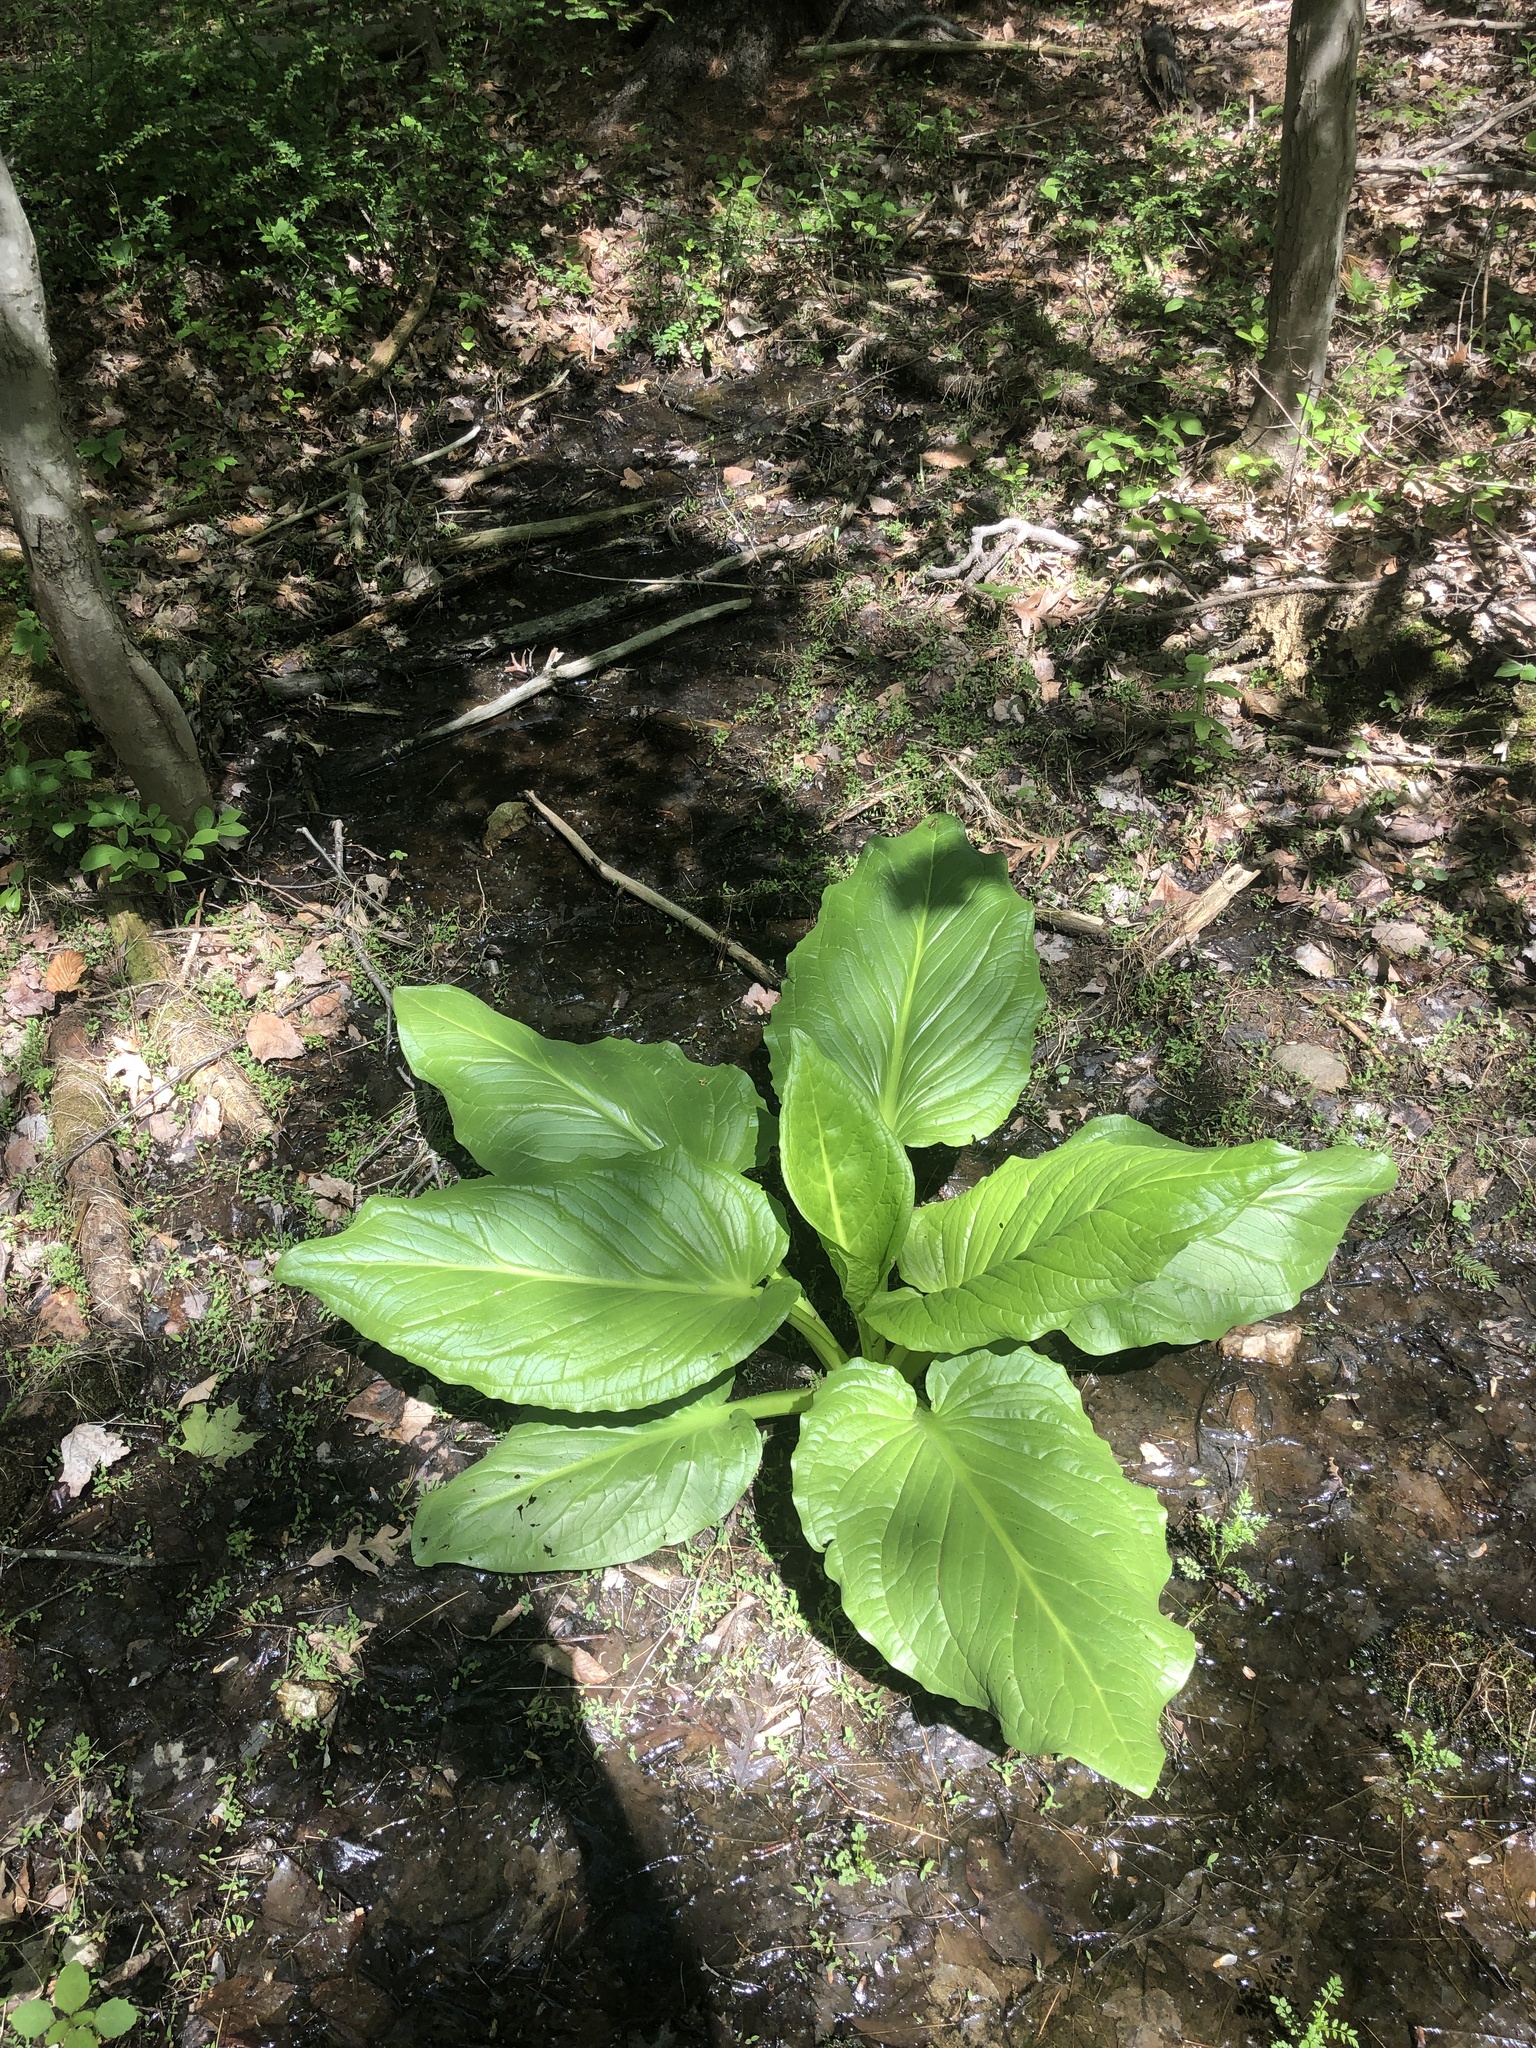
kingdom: Plantae
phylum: Tracheophyta
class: Liliopsida
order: Alismatales
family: Araceae
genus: Symplocarpus
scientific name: Symplocarpus foetidus
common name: Eastern skunk cabbage
